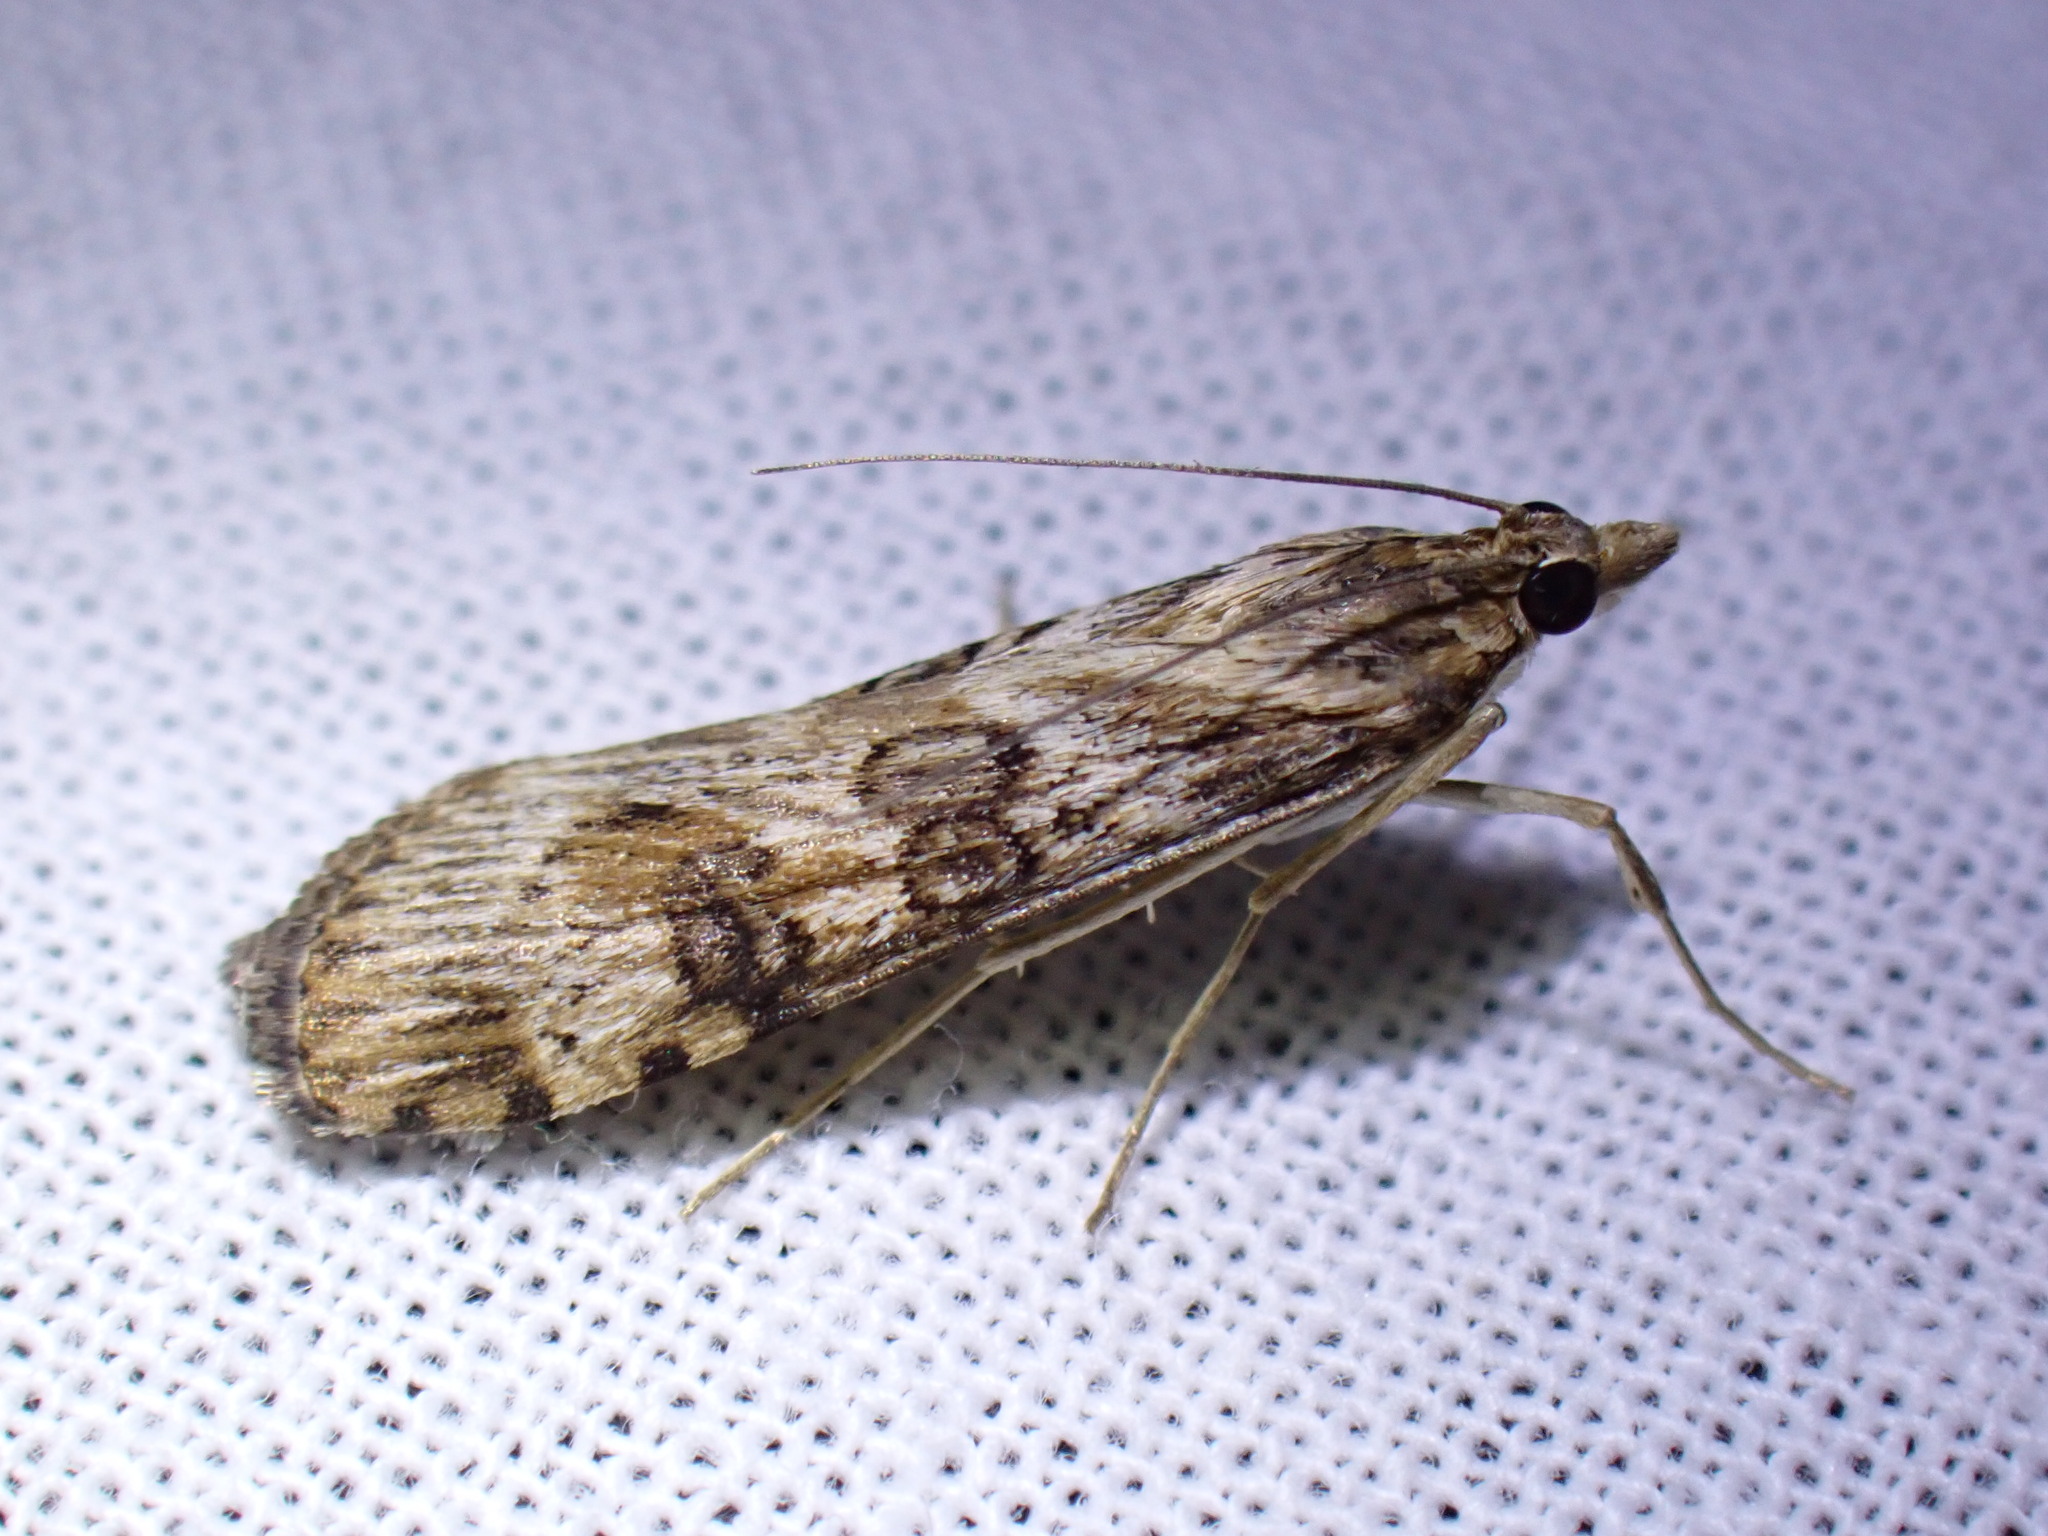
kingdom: Animalia
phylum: Arthropoda
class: Insecta
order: Lepidoptera
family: Crambidae
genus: Nomophila
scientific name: Nomophila nearctica
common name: American rush veneer
